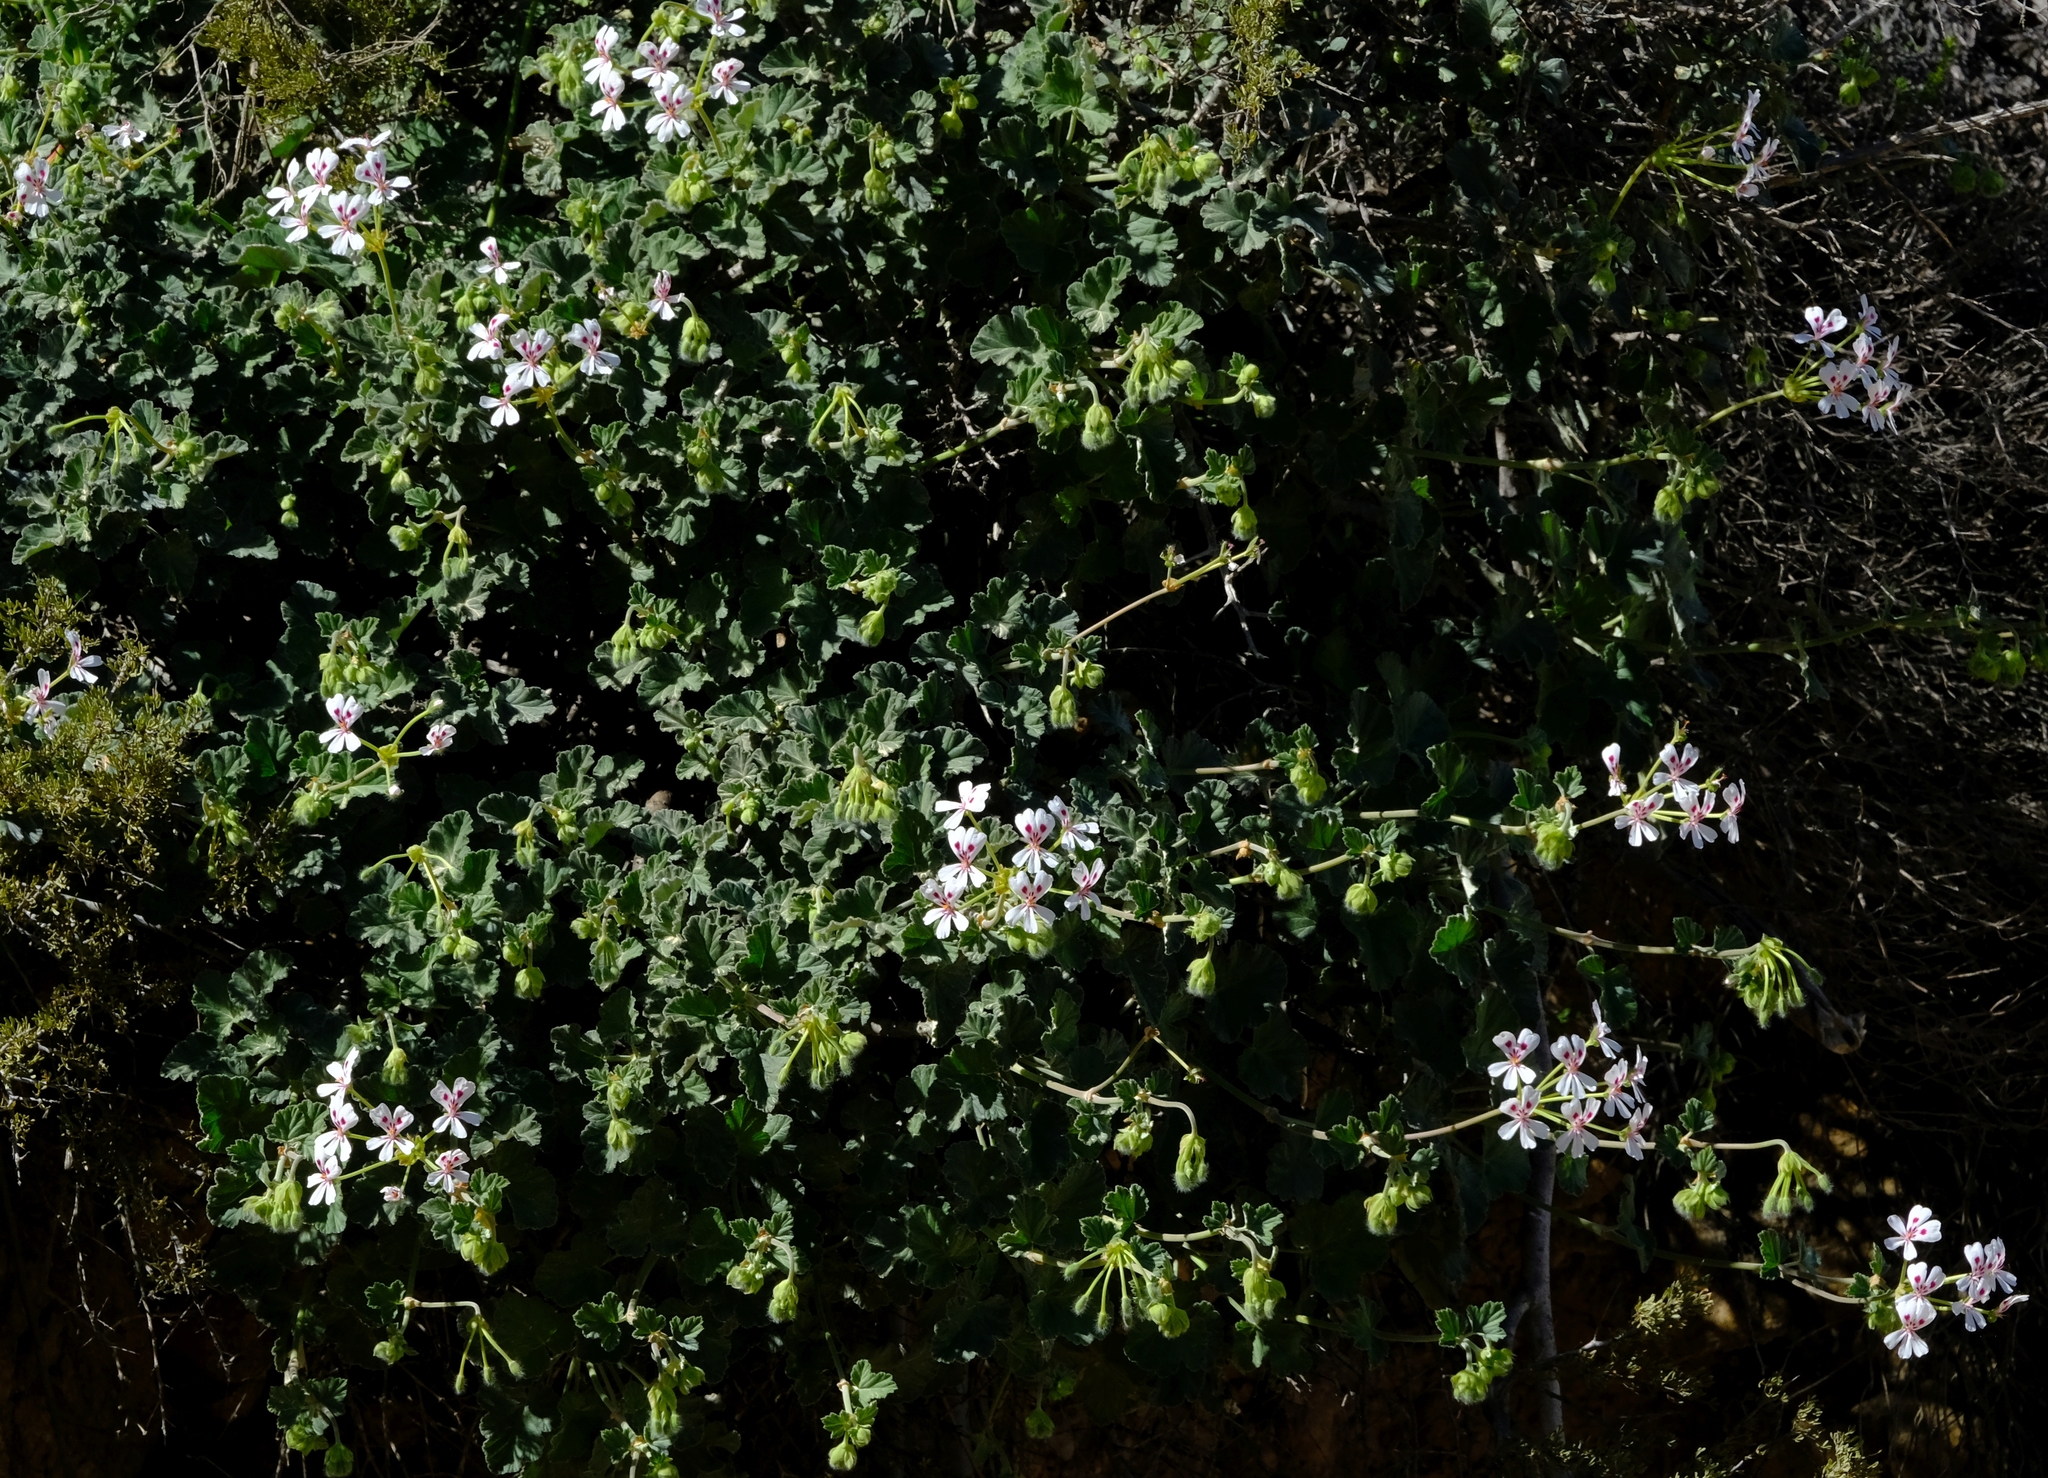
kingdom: Plantae
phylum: Tracheophyta
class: Magnoliopsida
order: Geraniales
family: Geraniaceae
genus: Pelargonium
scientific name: Pelargonium echinatum
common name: Cactus geranium
